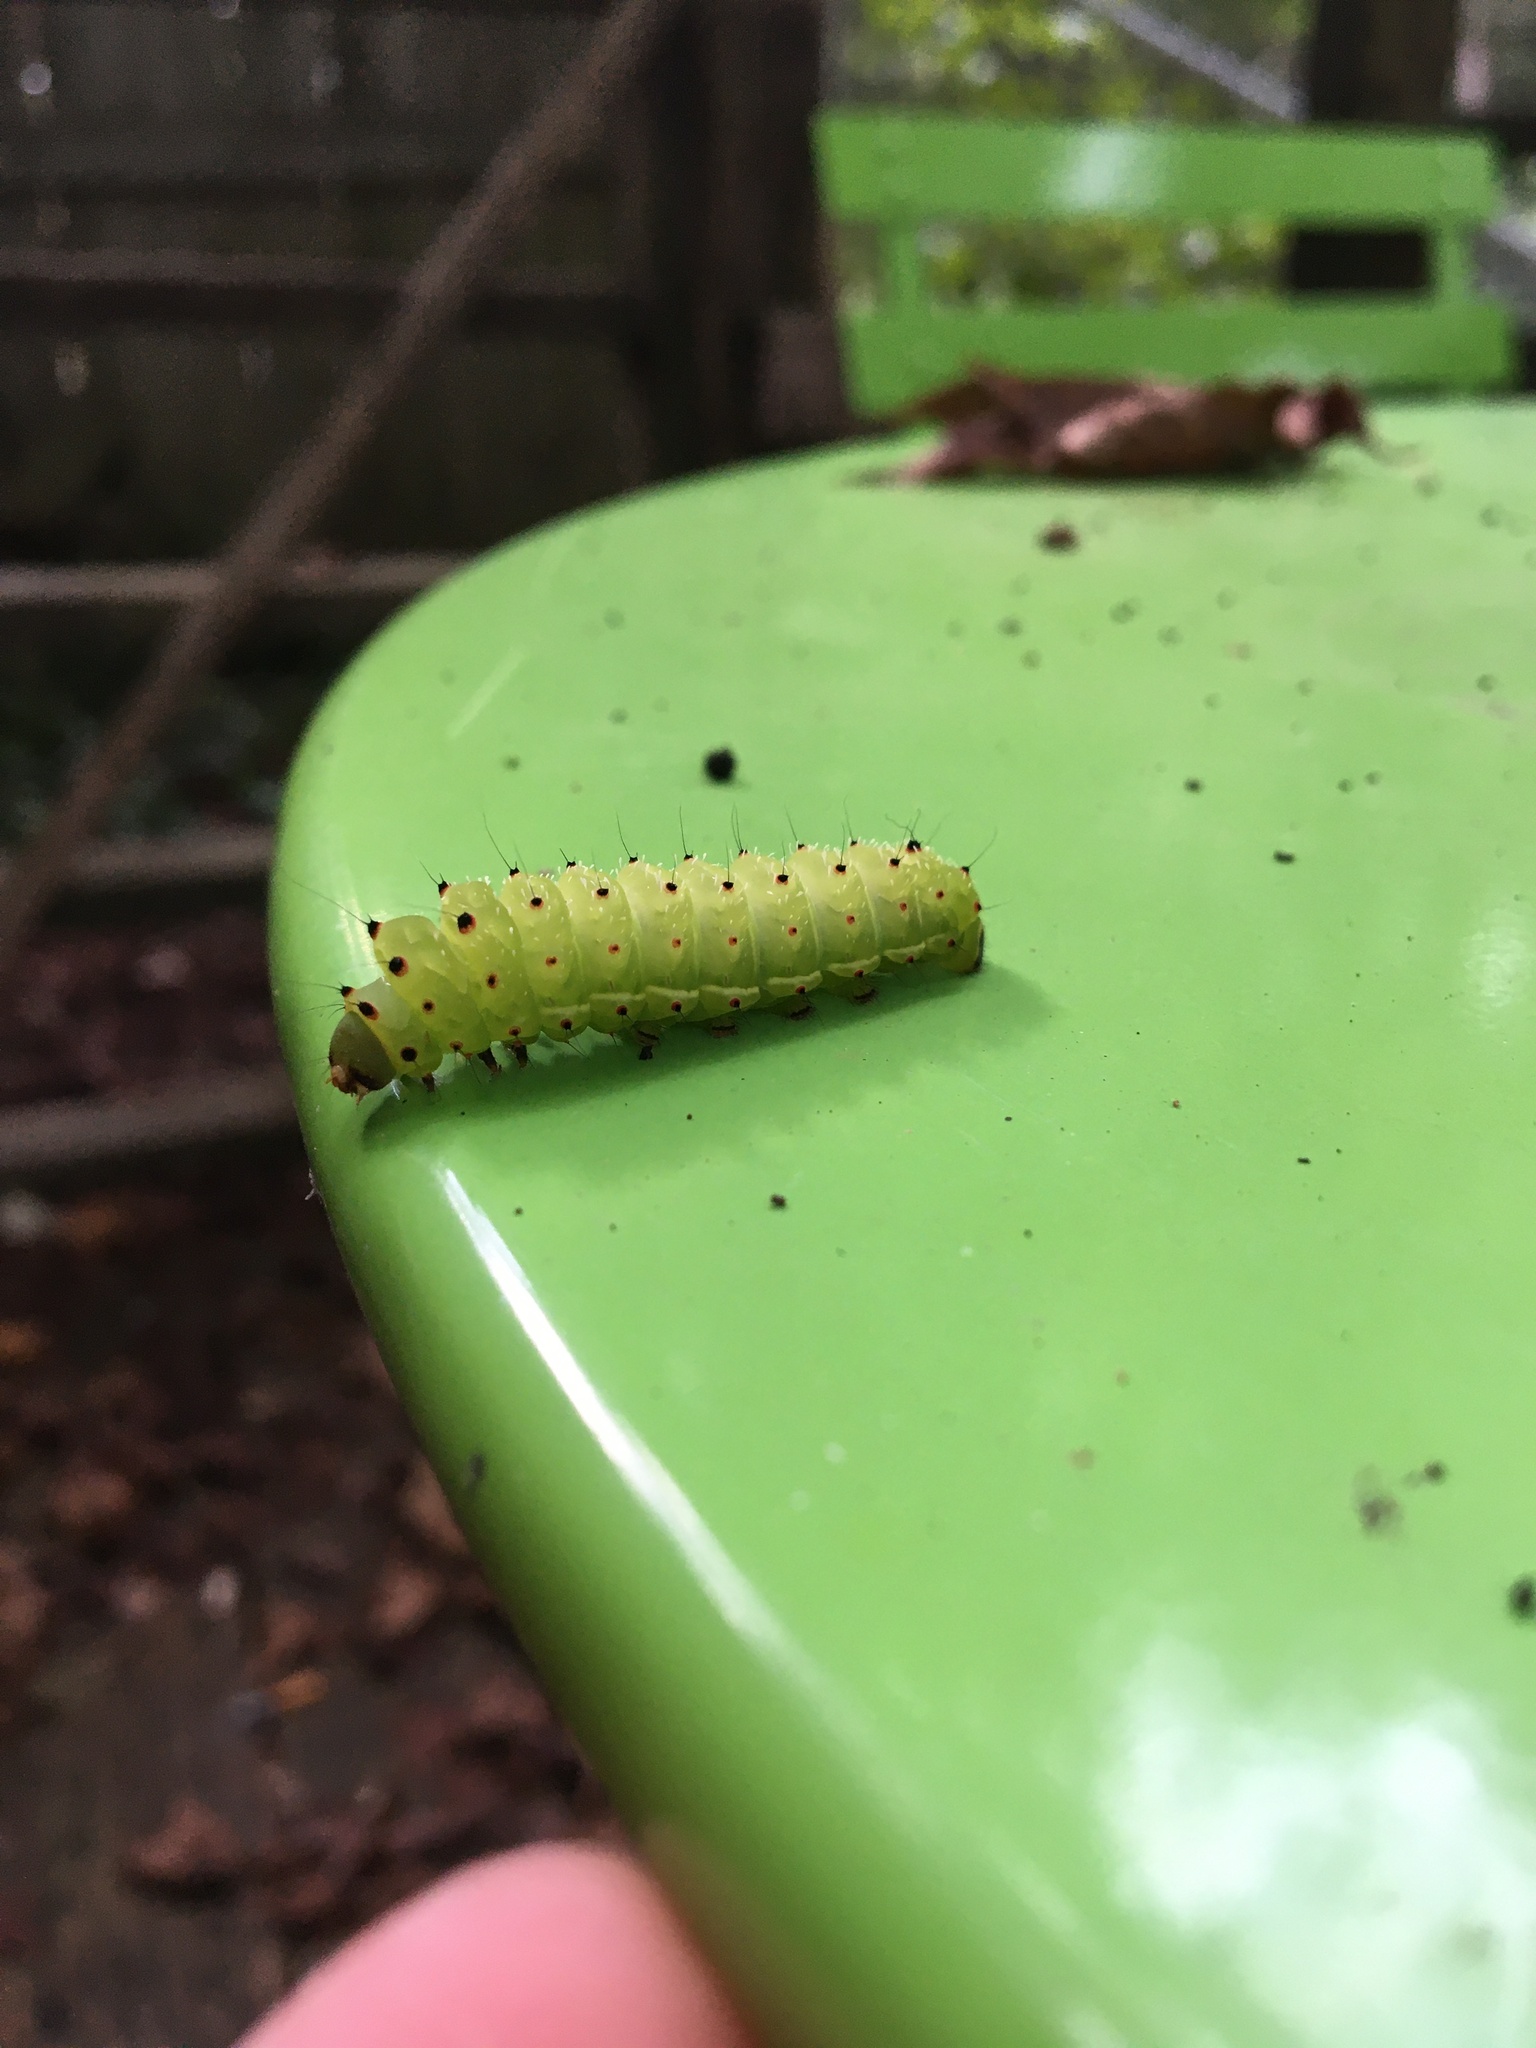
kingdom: Animalia
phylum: Arthropoda
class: Insecta
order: Lepidoptera
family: Saturniidae
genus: Actias
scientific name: Actias luna
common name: Luna moth
